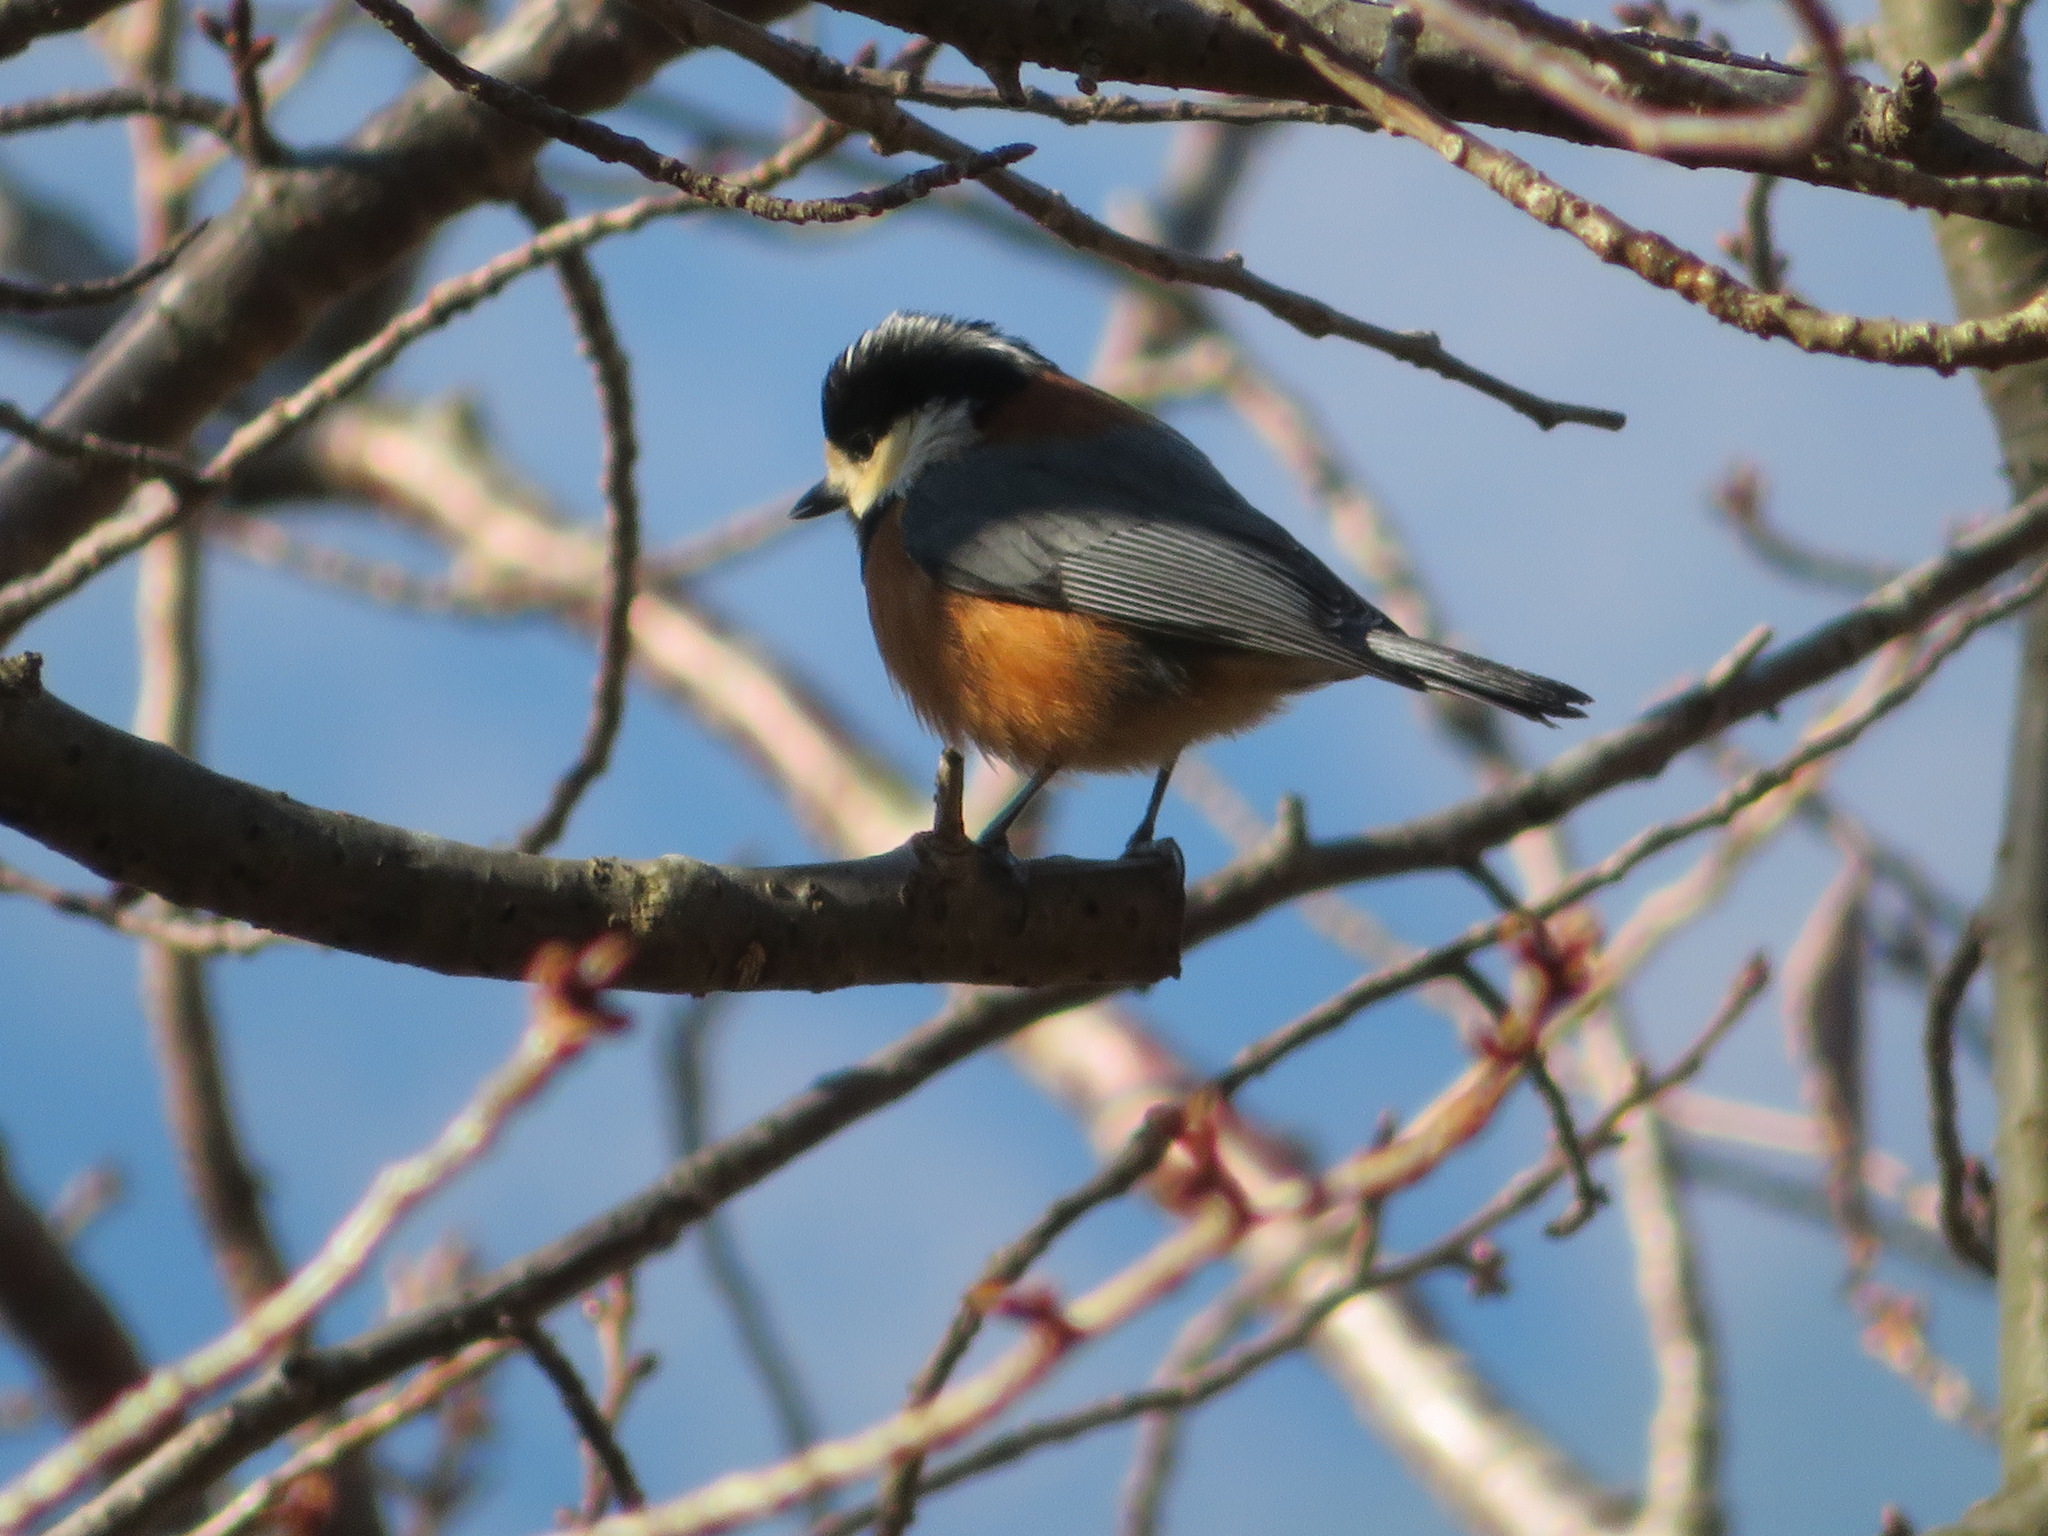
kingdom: Animalia
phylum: Chordata
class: Aves
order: Passeriformes
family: Paridae
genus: Poecile
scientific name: Poecile varius
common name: Varied tit
